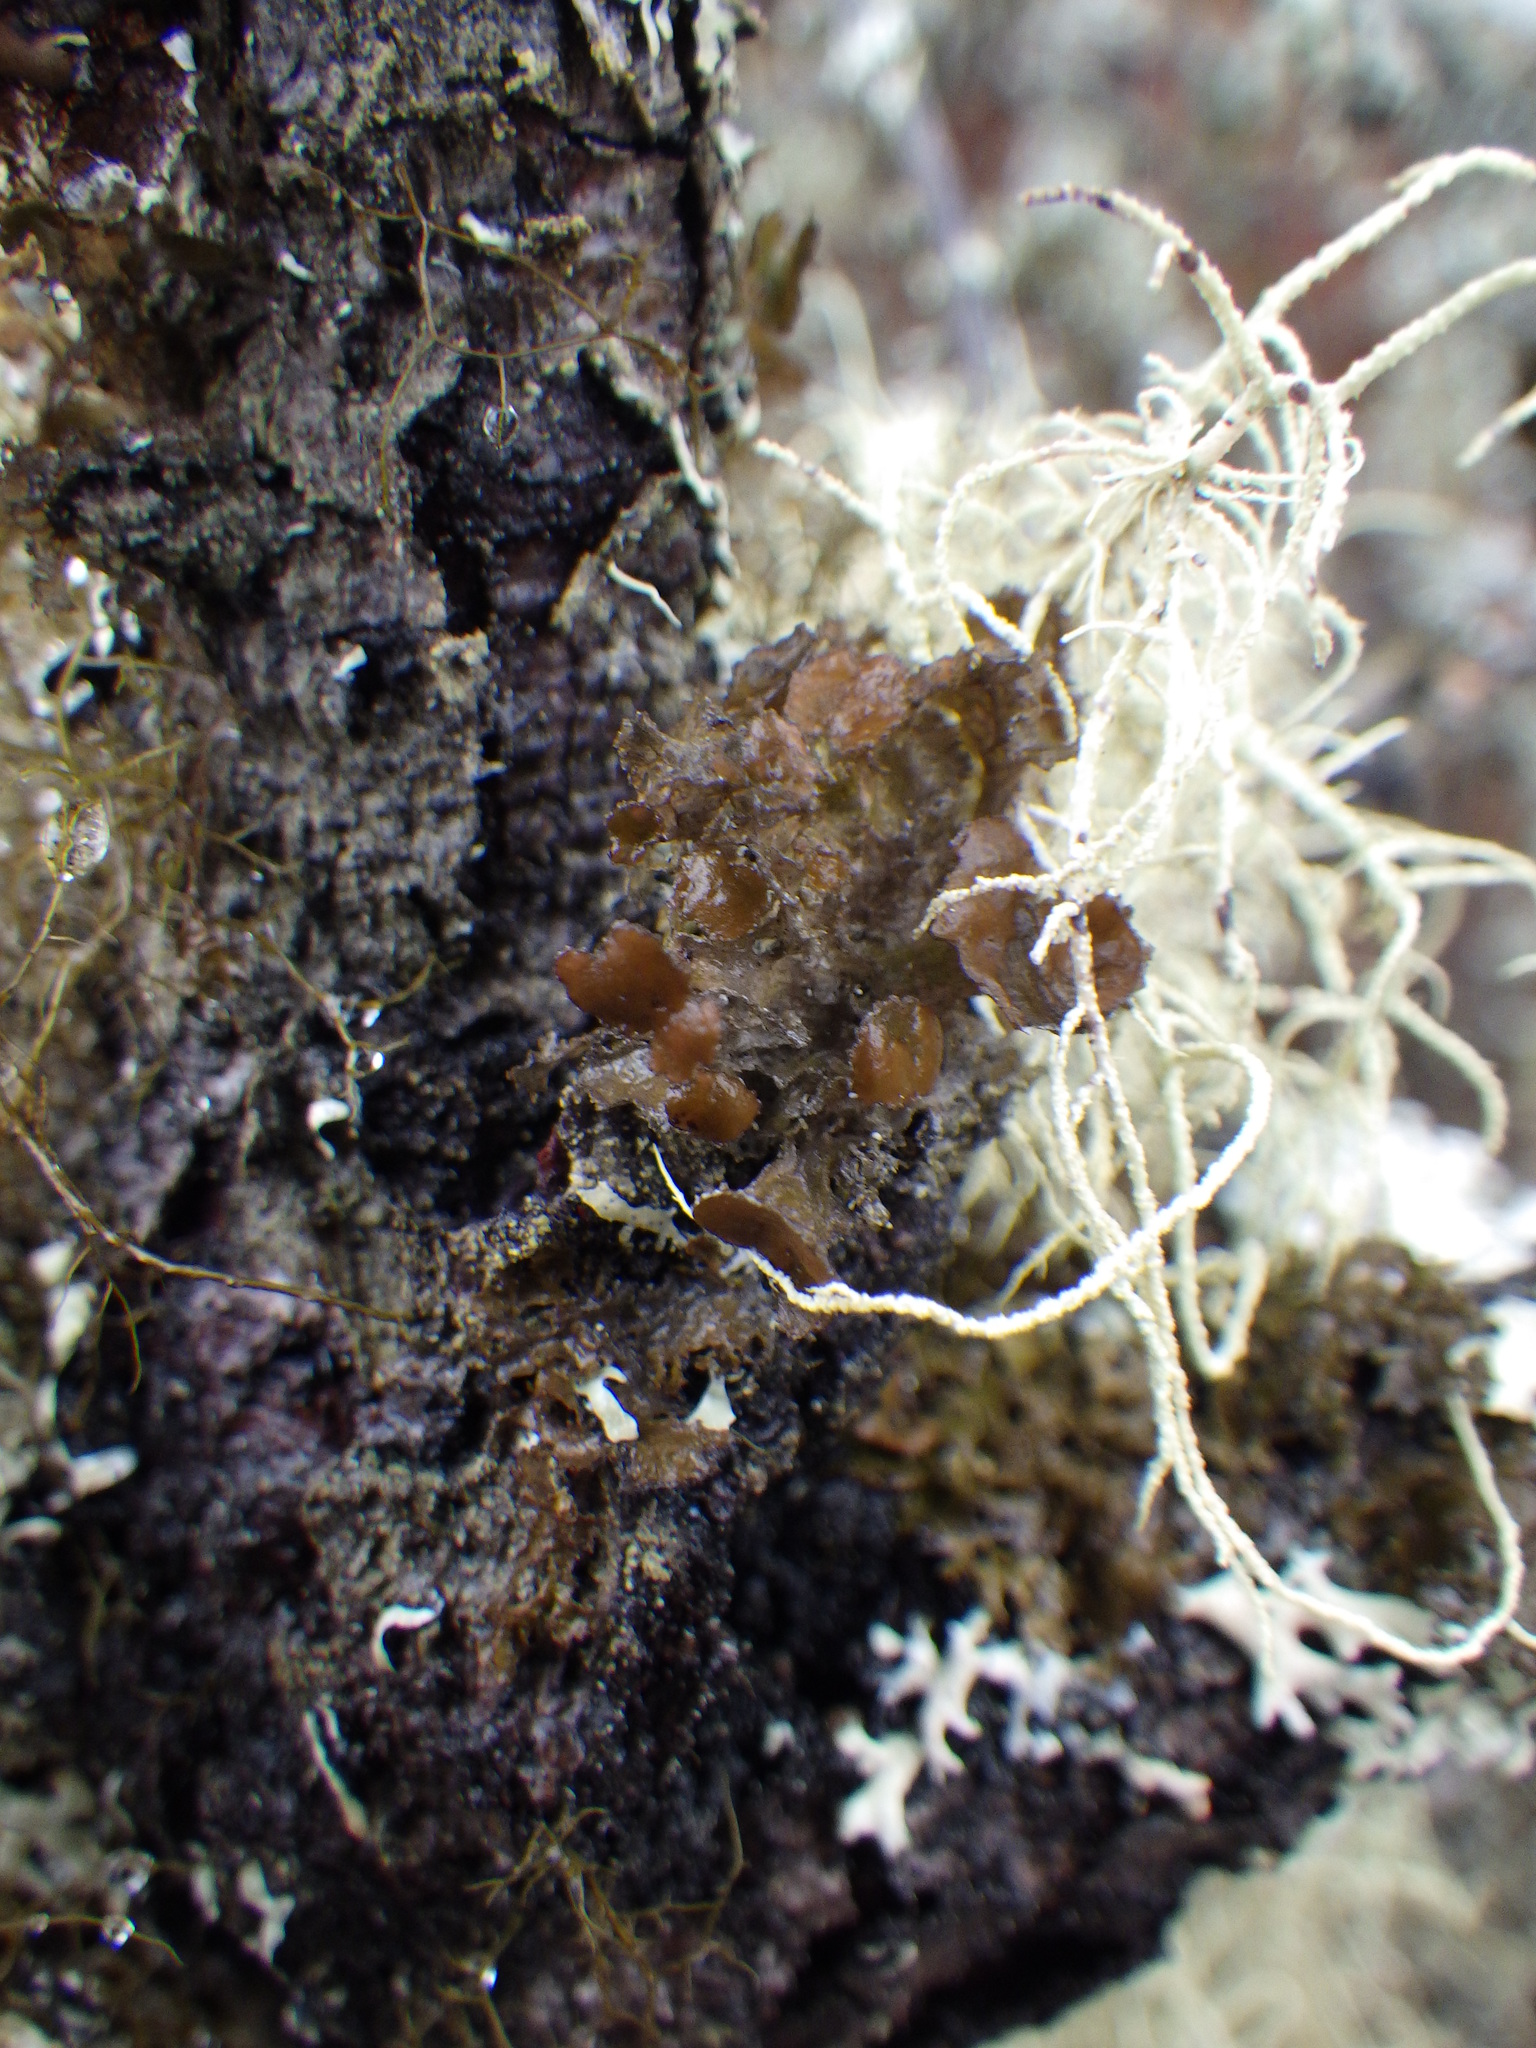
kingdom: Fungi
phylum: Ascomycota
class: Lecanoromycetes
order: Lecanorales
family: Parmeliaceae
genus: Nephromopsis
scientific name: Nephromopsis orbata
